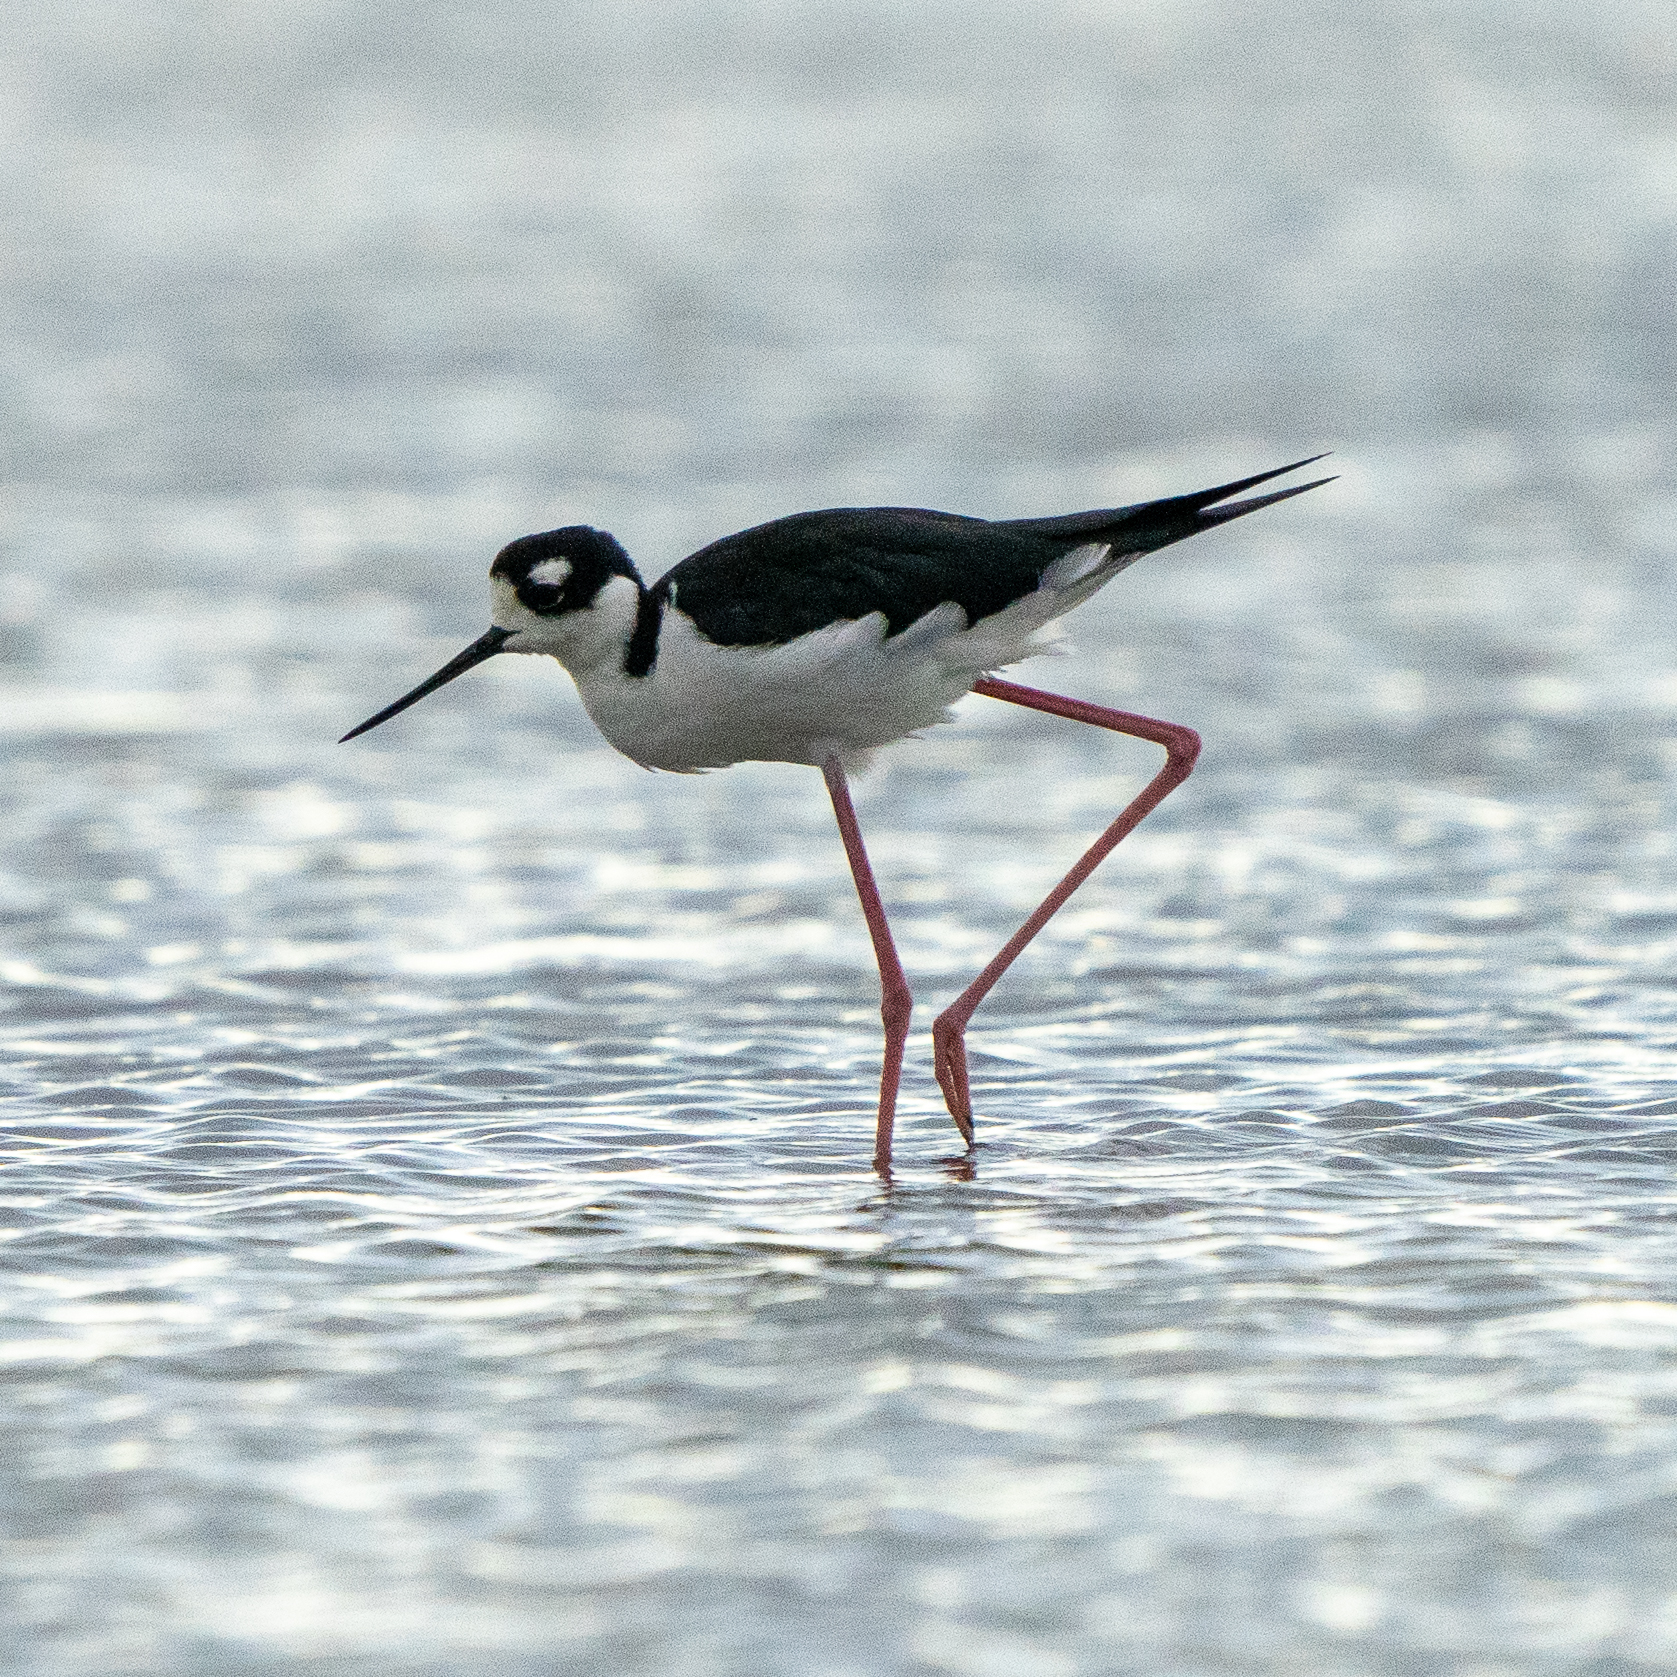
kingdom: Animalia
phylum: Chordata
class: Aves
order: Charadriiformes
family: Recurvirostridae
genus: Himantopus
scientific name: Himantopus mexicanus
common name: Black-necked stilt
